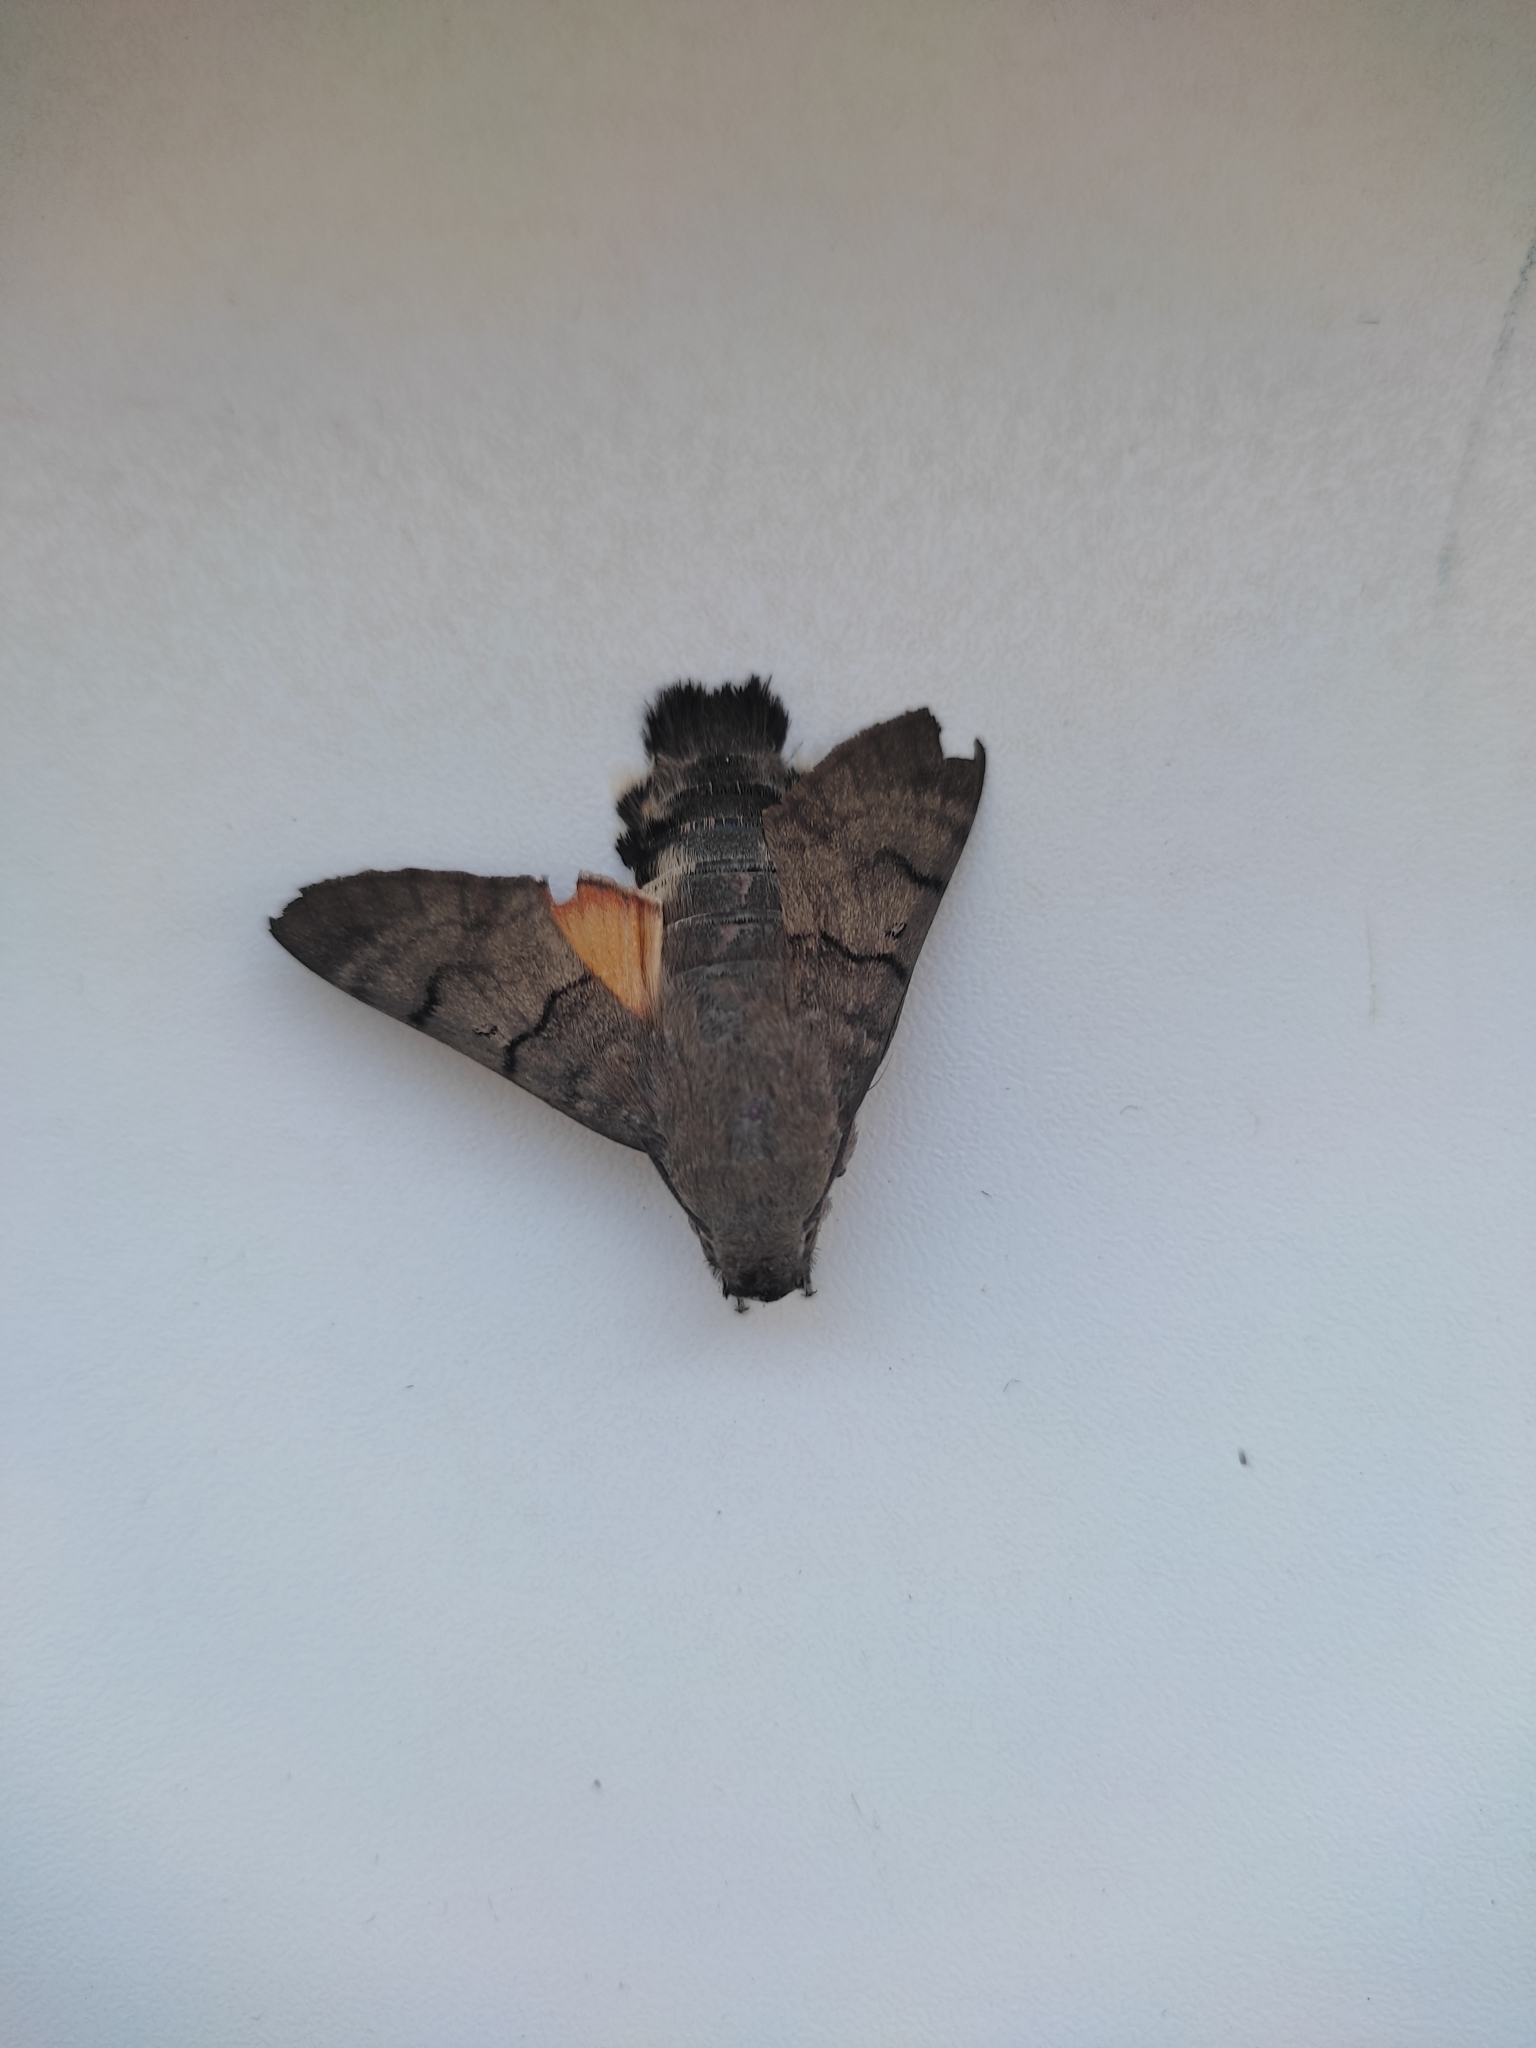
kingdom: Animalia
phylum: Arthropoda
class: Insecta
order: Lepidoptera
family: Sphingidae
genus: Macroglossum
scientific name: Macroglossum stellatarum
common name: Humming-bird hawk-moth
